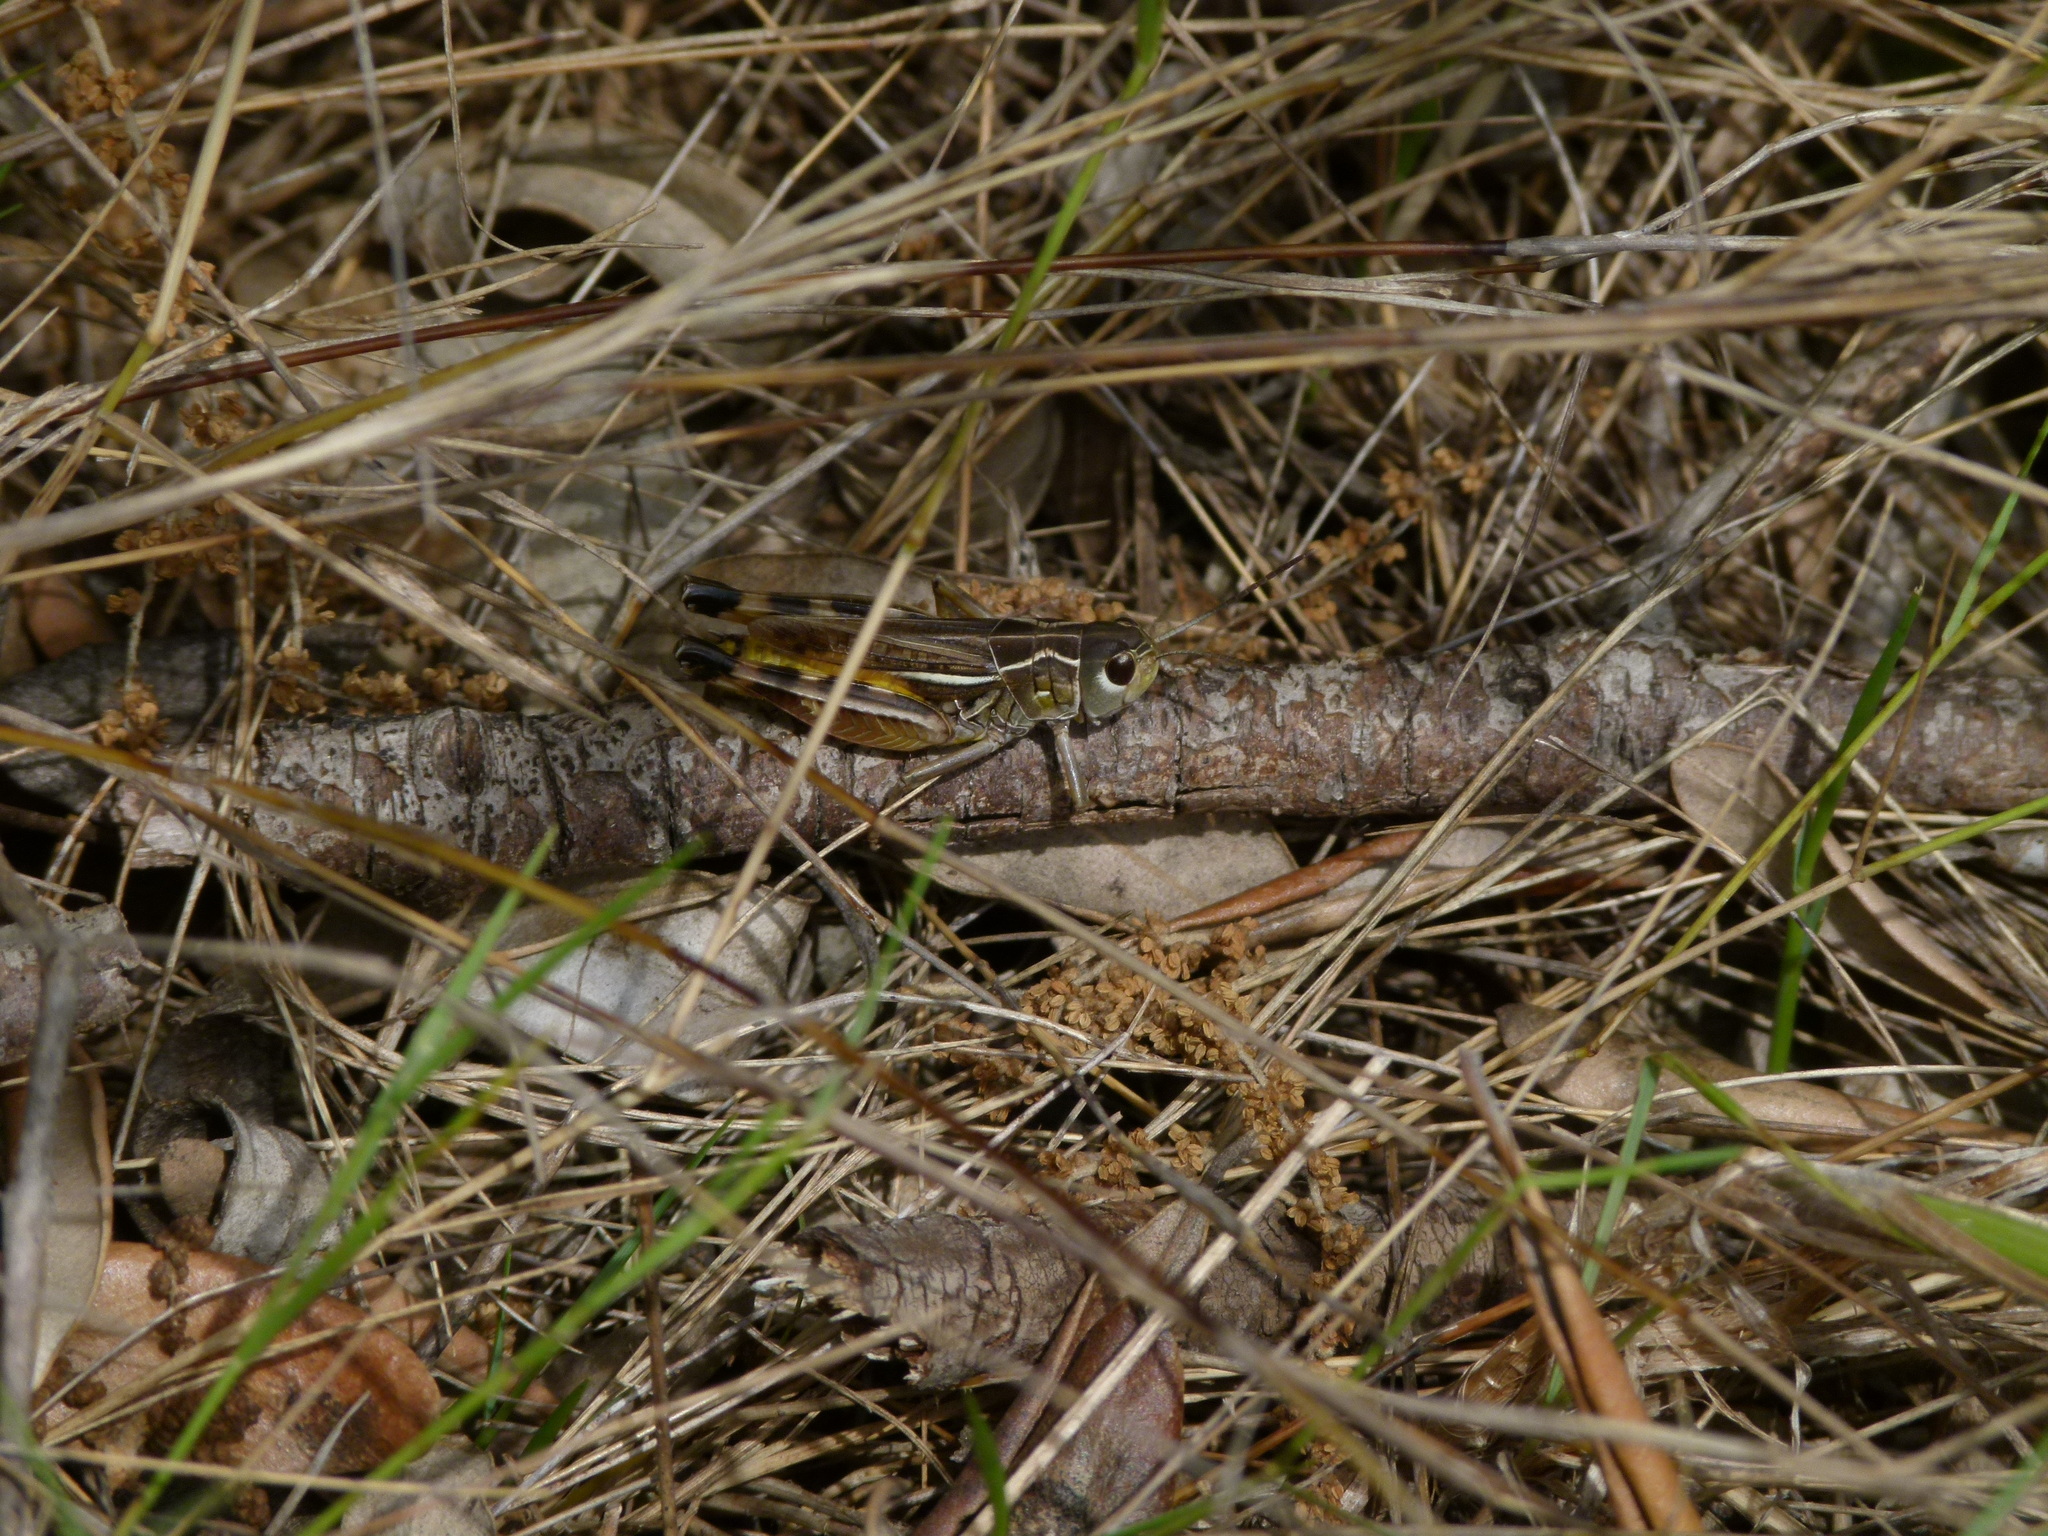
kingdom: Animalia
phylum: Arthropoda
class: Insecta
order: Orthoptera
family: Acrididae
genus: Arcyptera
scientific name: Arcyptera brevipennis
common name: Western banded grasshopper
